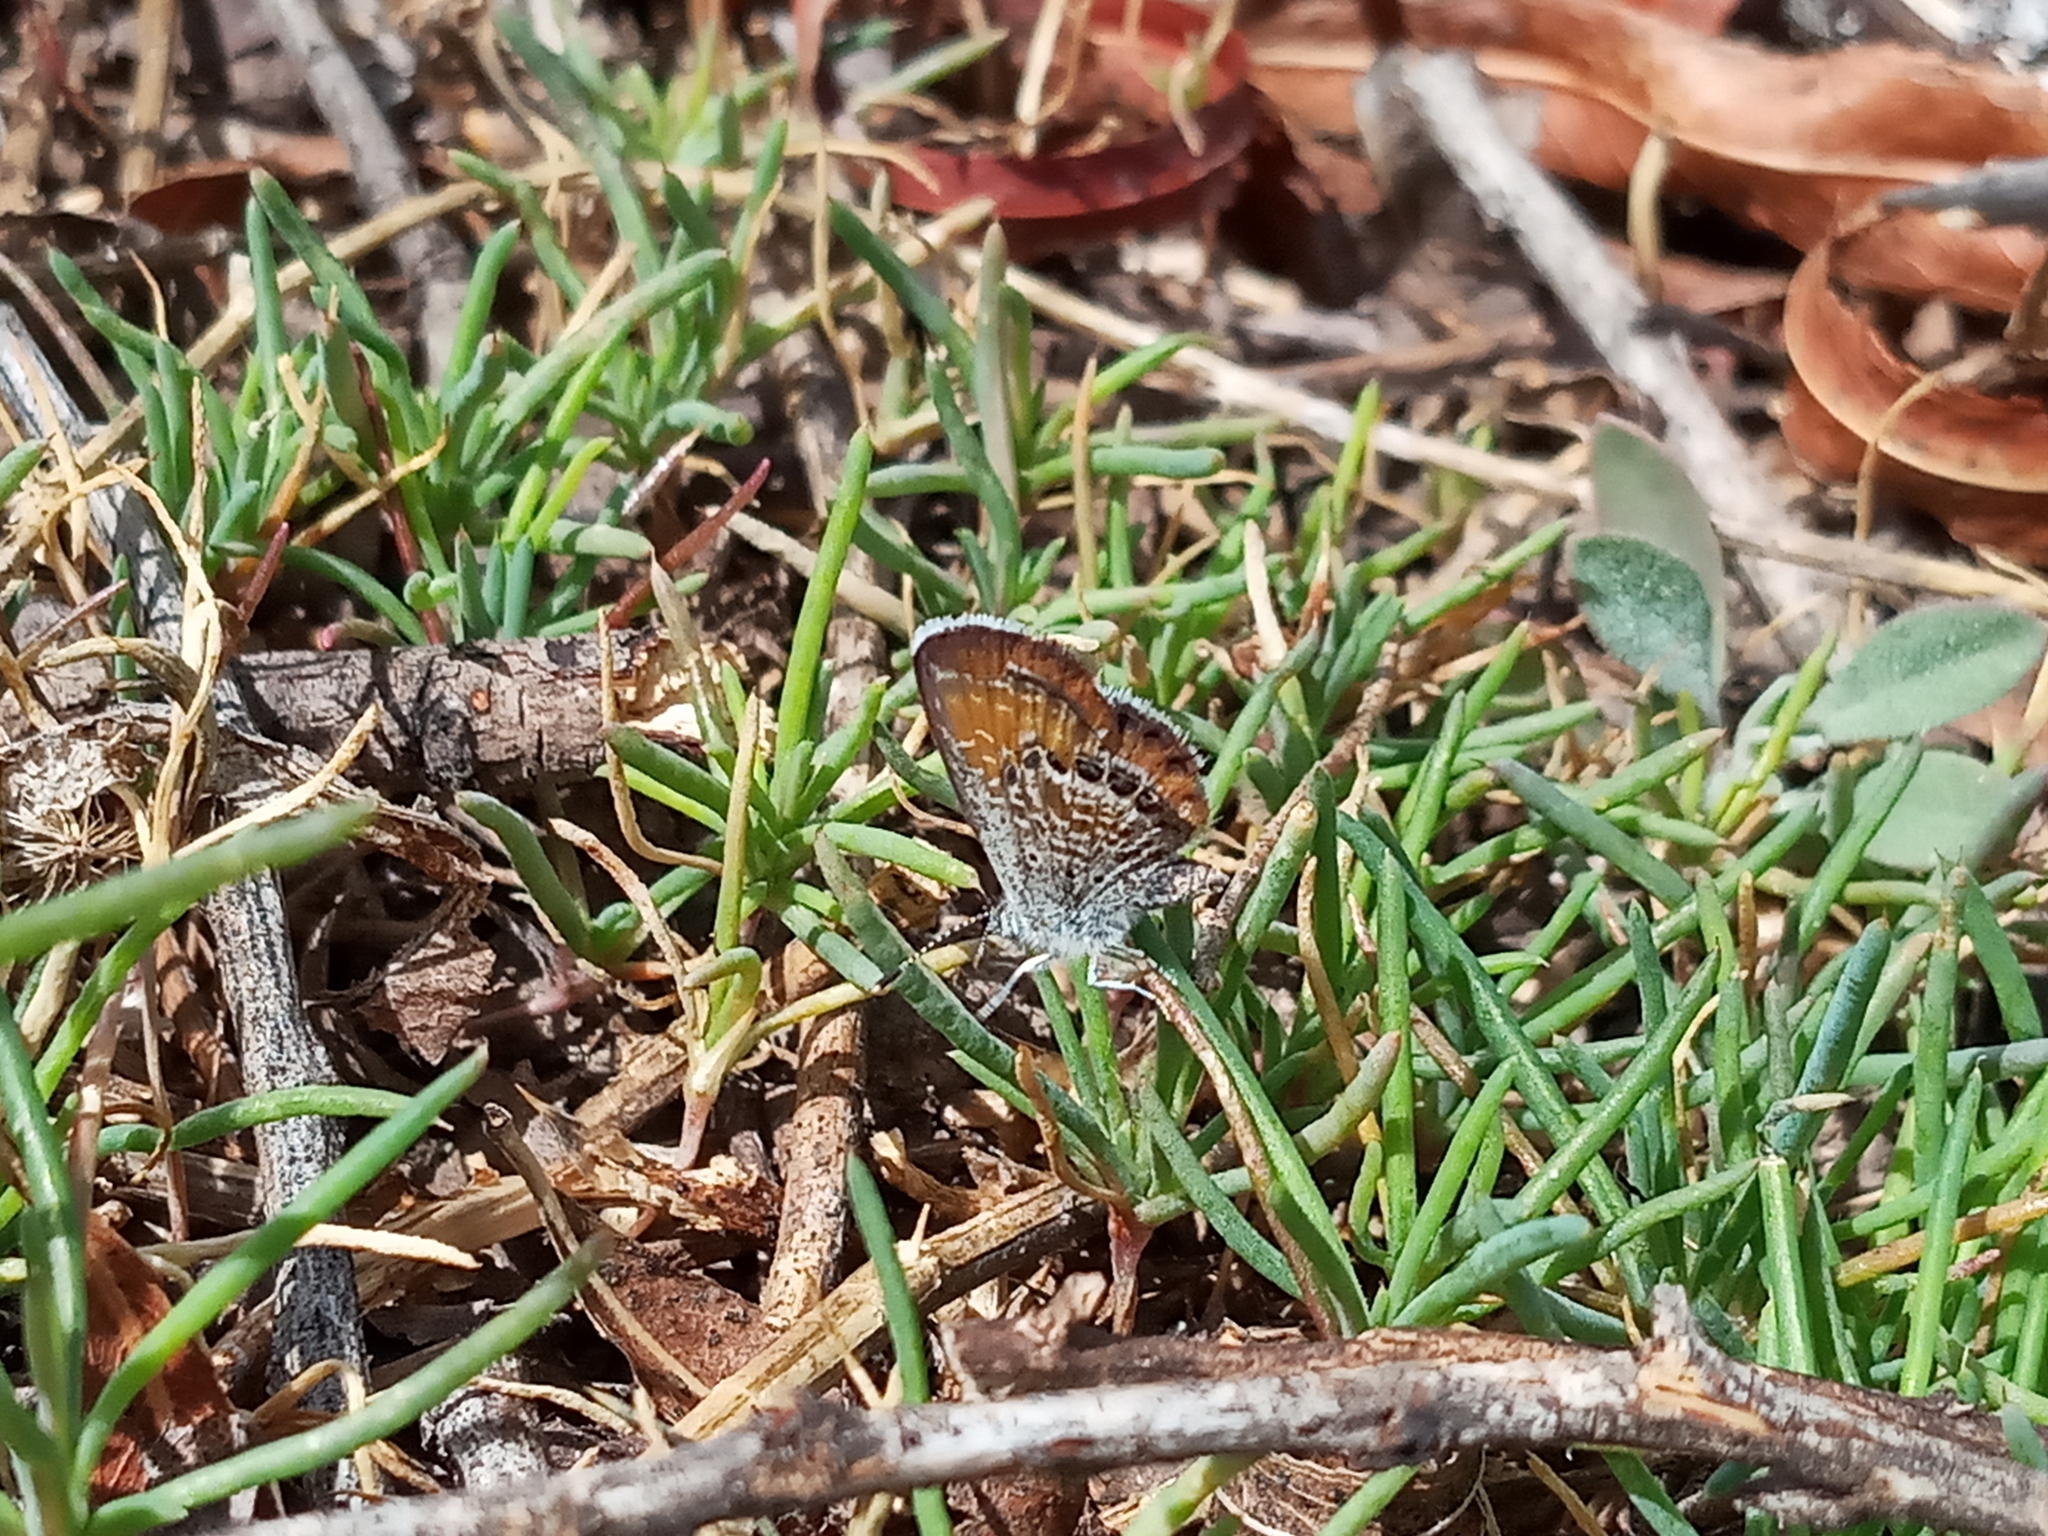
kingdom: Animalia
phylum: Arthropoda
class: Insecta
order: Lepidoptera
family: Lycaenidae
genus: Brephidium
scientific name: Brephidium exilis
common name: Pygmy blue
